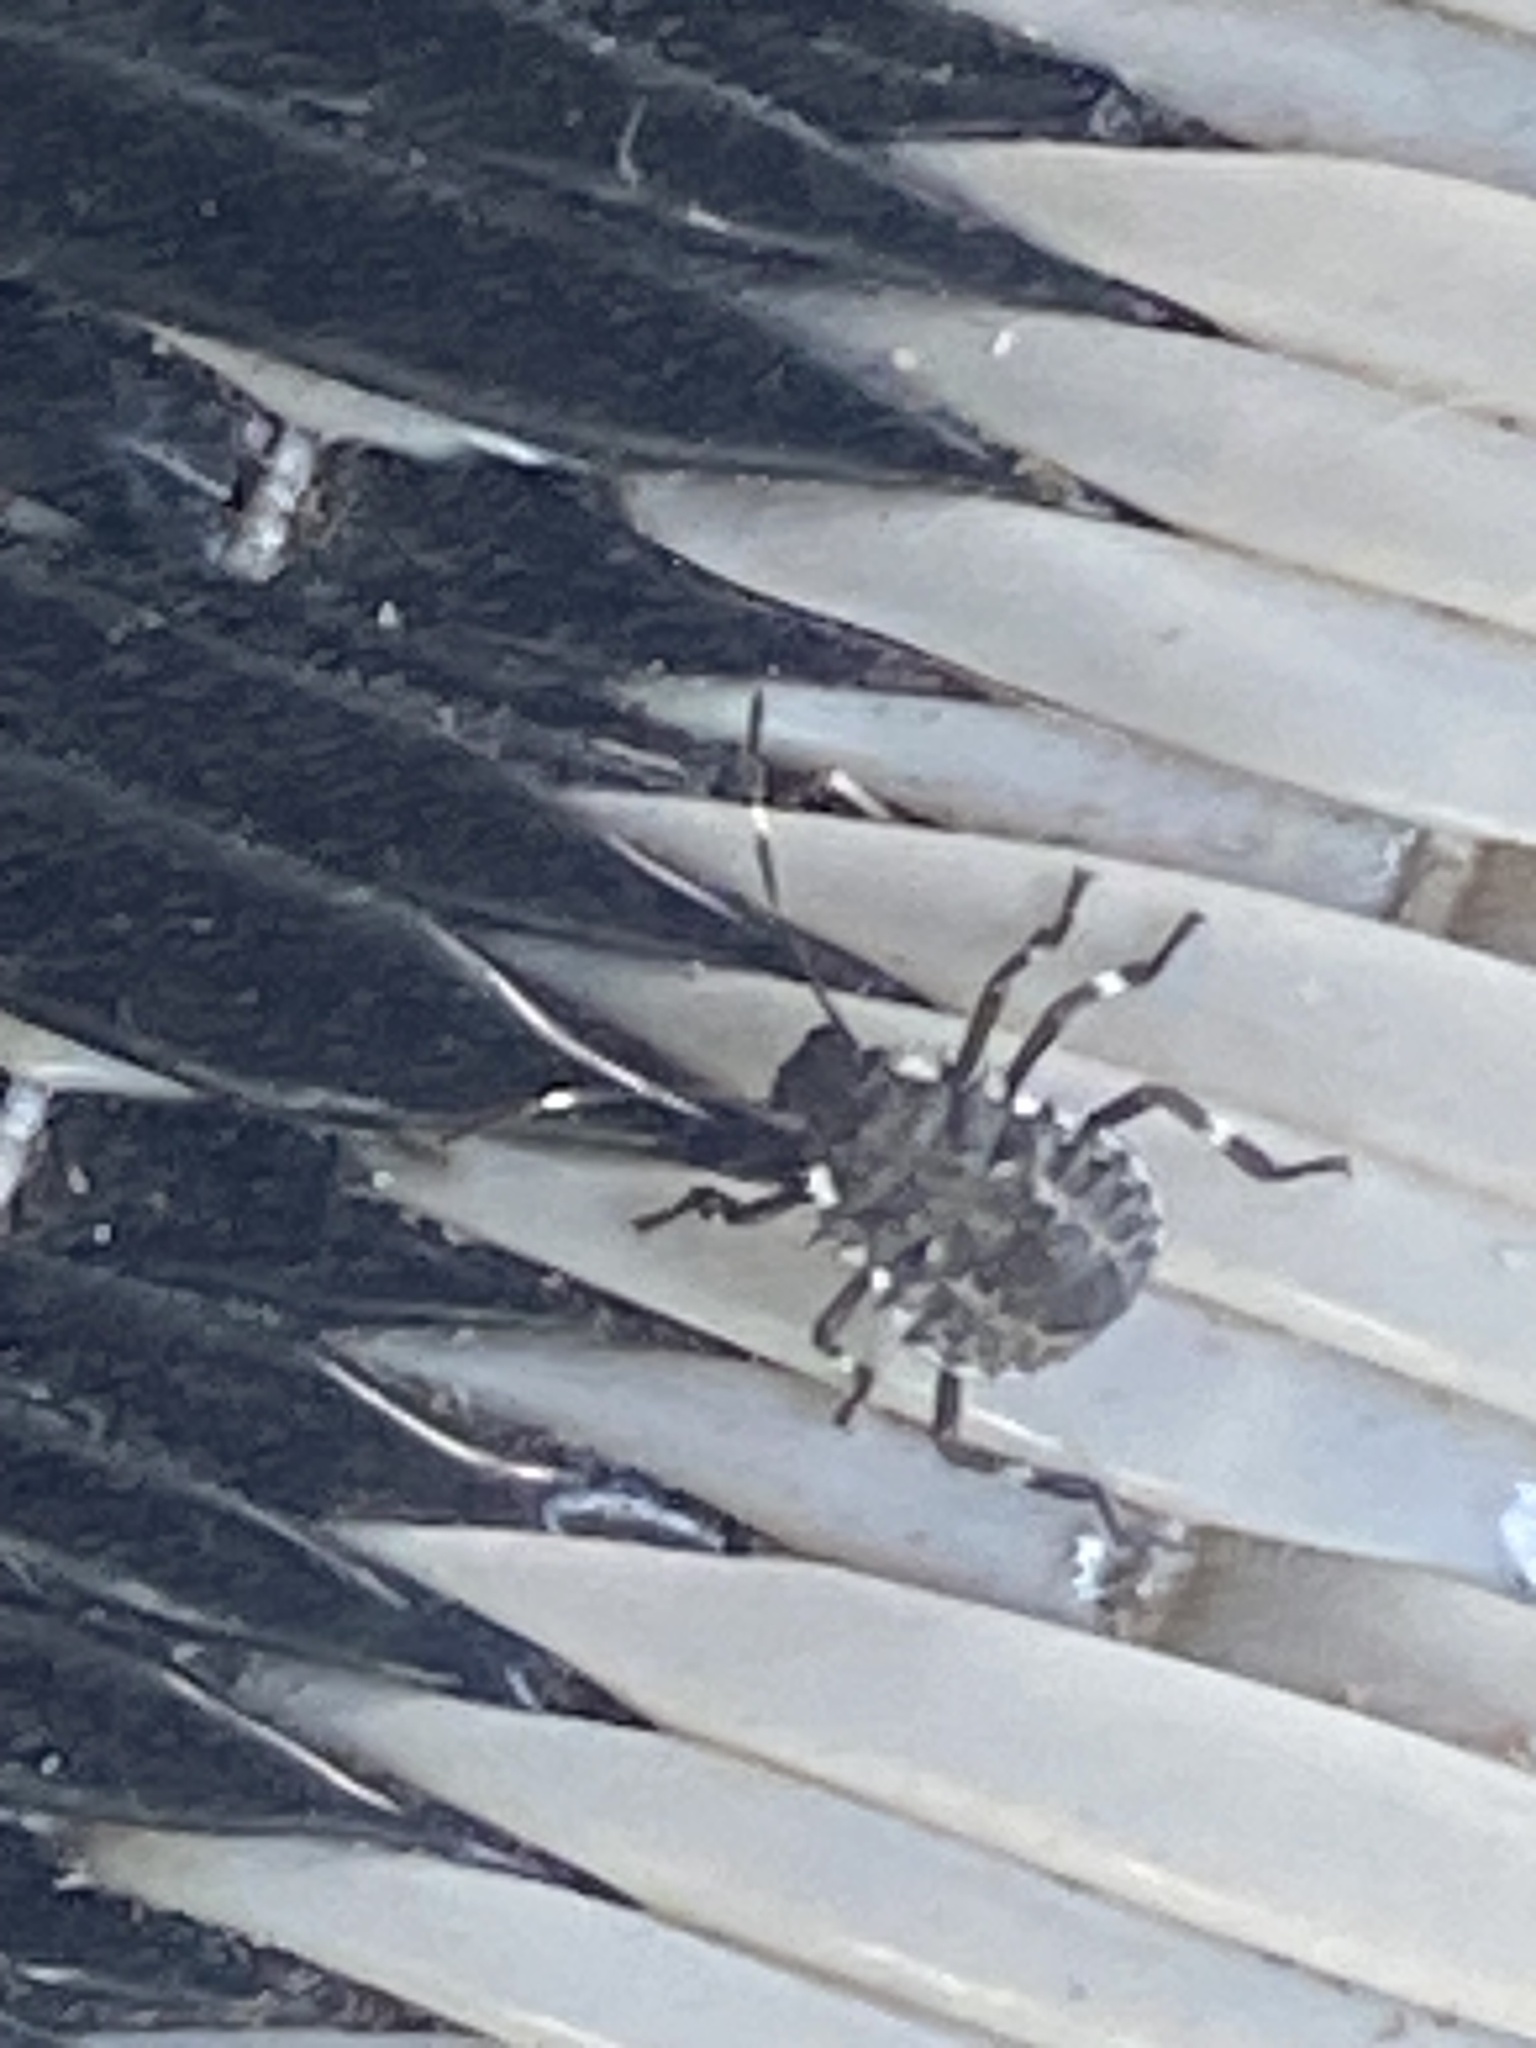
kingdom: Animalia
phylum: Arthropoda
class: Insecta
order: Hemiptera
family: Pentatomidae
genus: Halyomorpha
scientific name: Halyomorpha halys
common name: Brown marmorated stink bug
